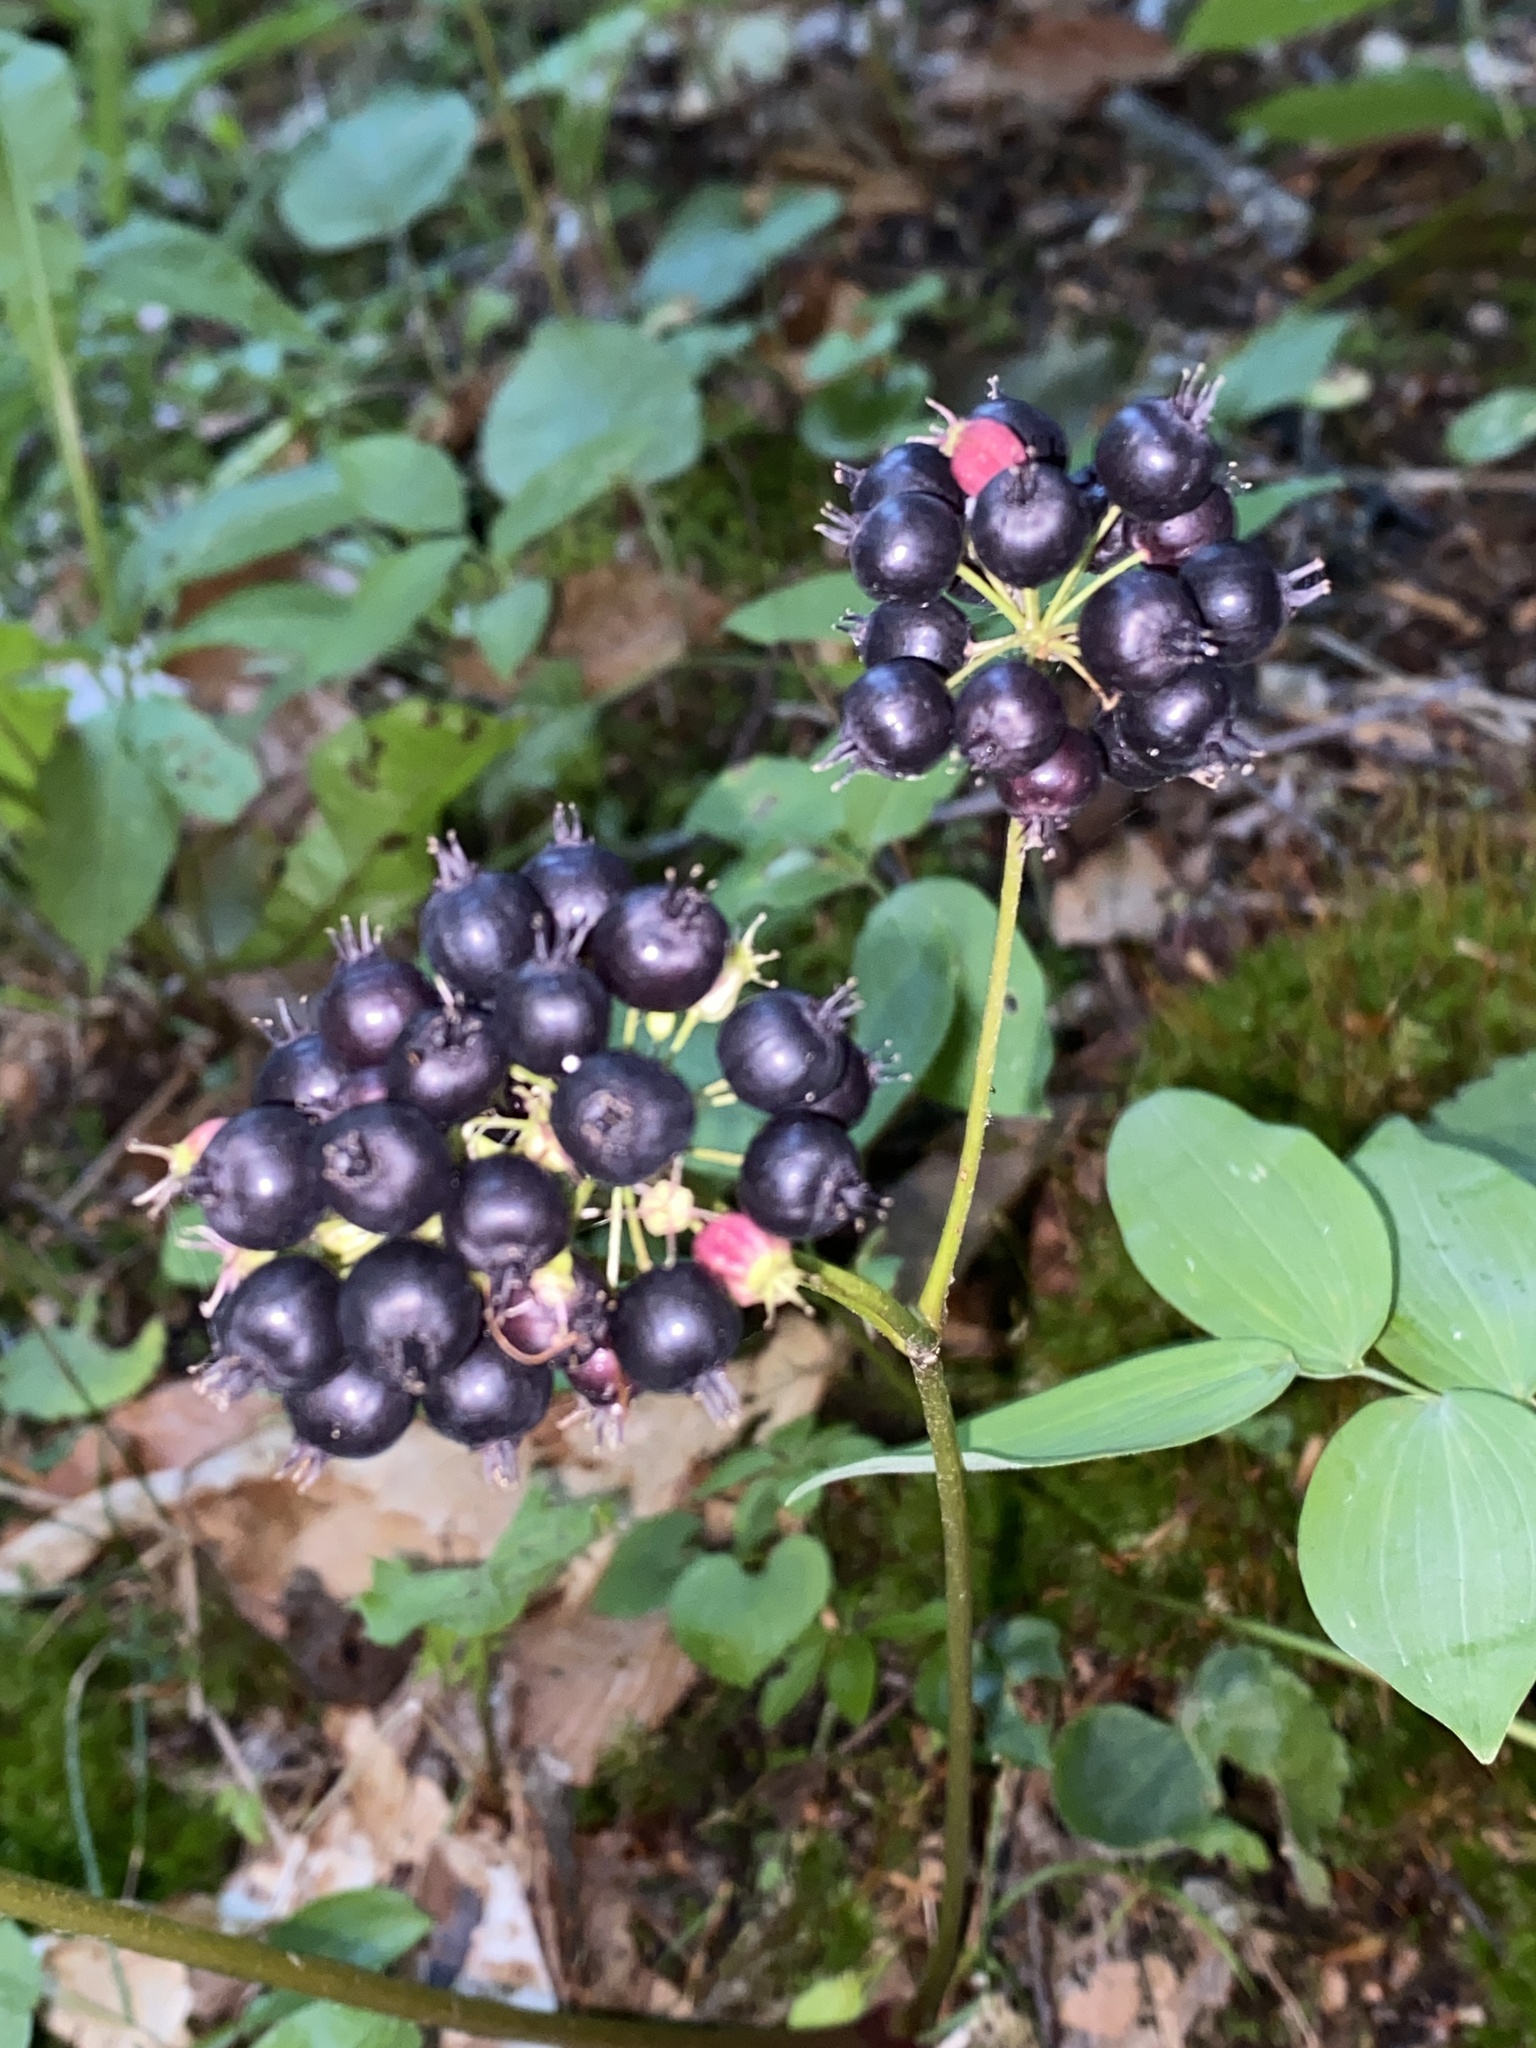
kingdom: Plantae
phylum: Tracheophyta
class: Magnoliopsida
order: Apiales
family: Araliaceae
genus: Aralia
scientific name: Aralia nudicaulis
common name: Wild sarsaparilla
